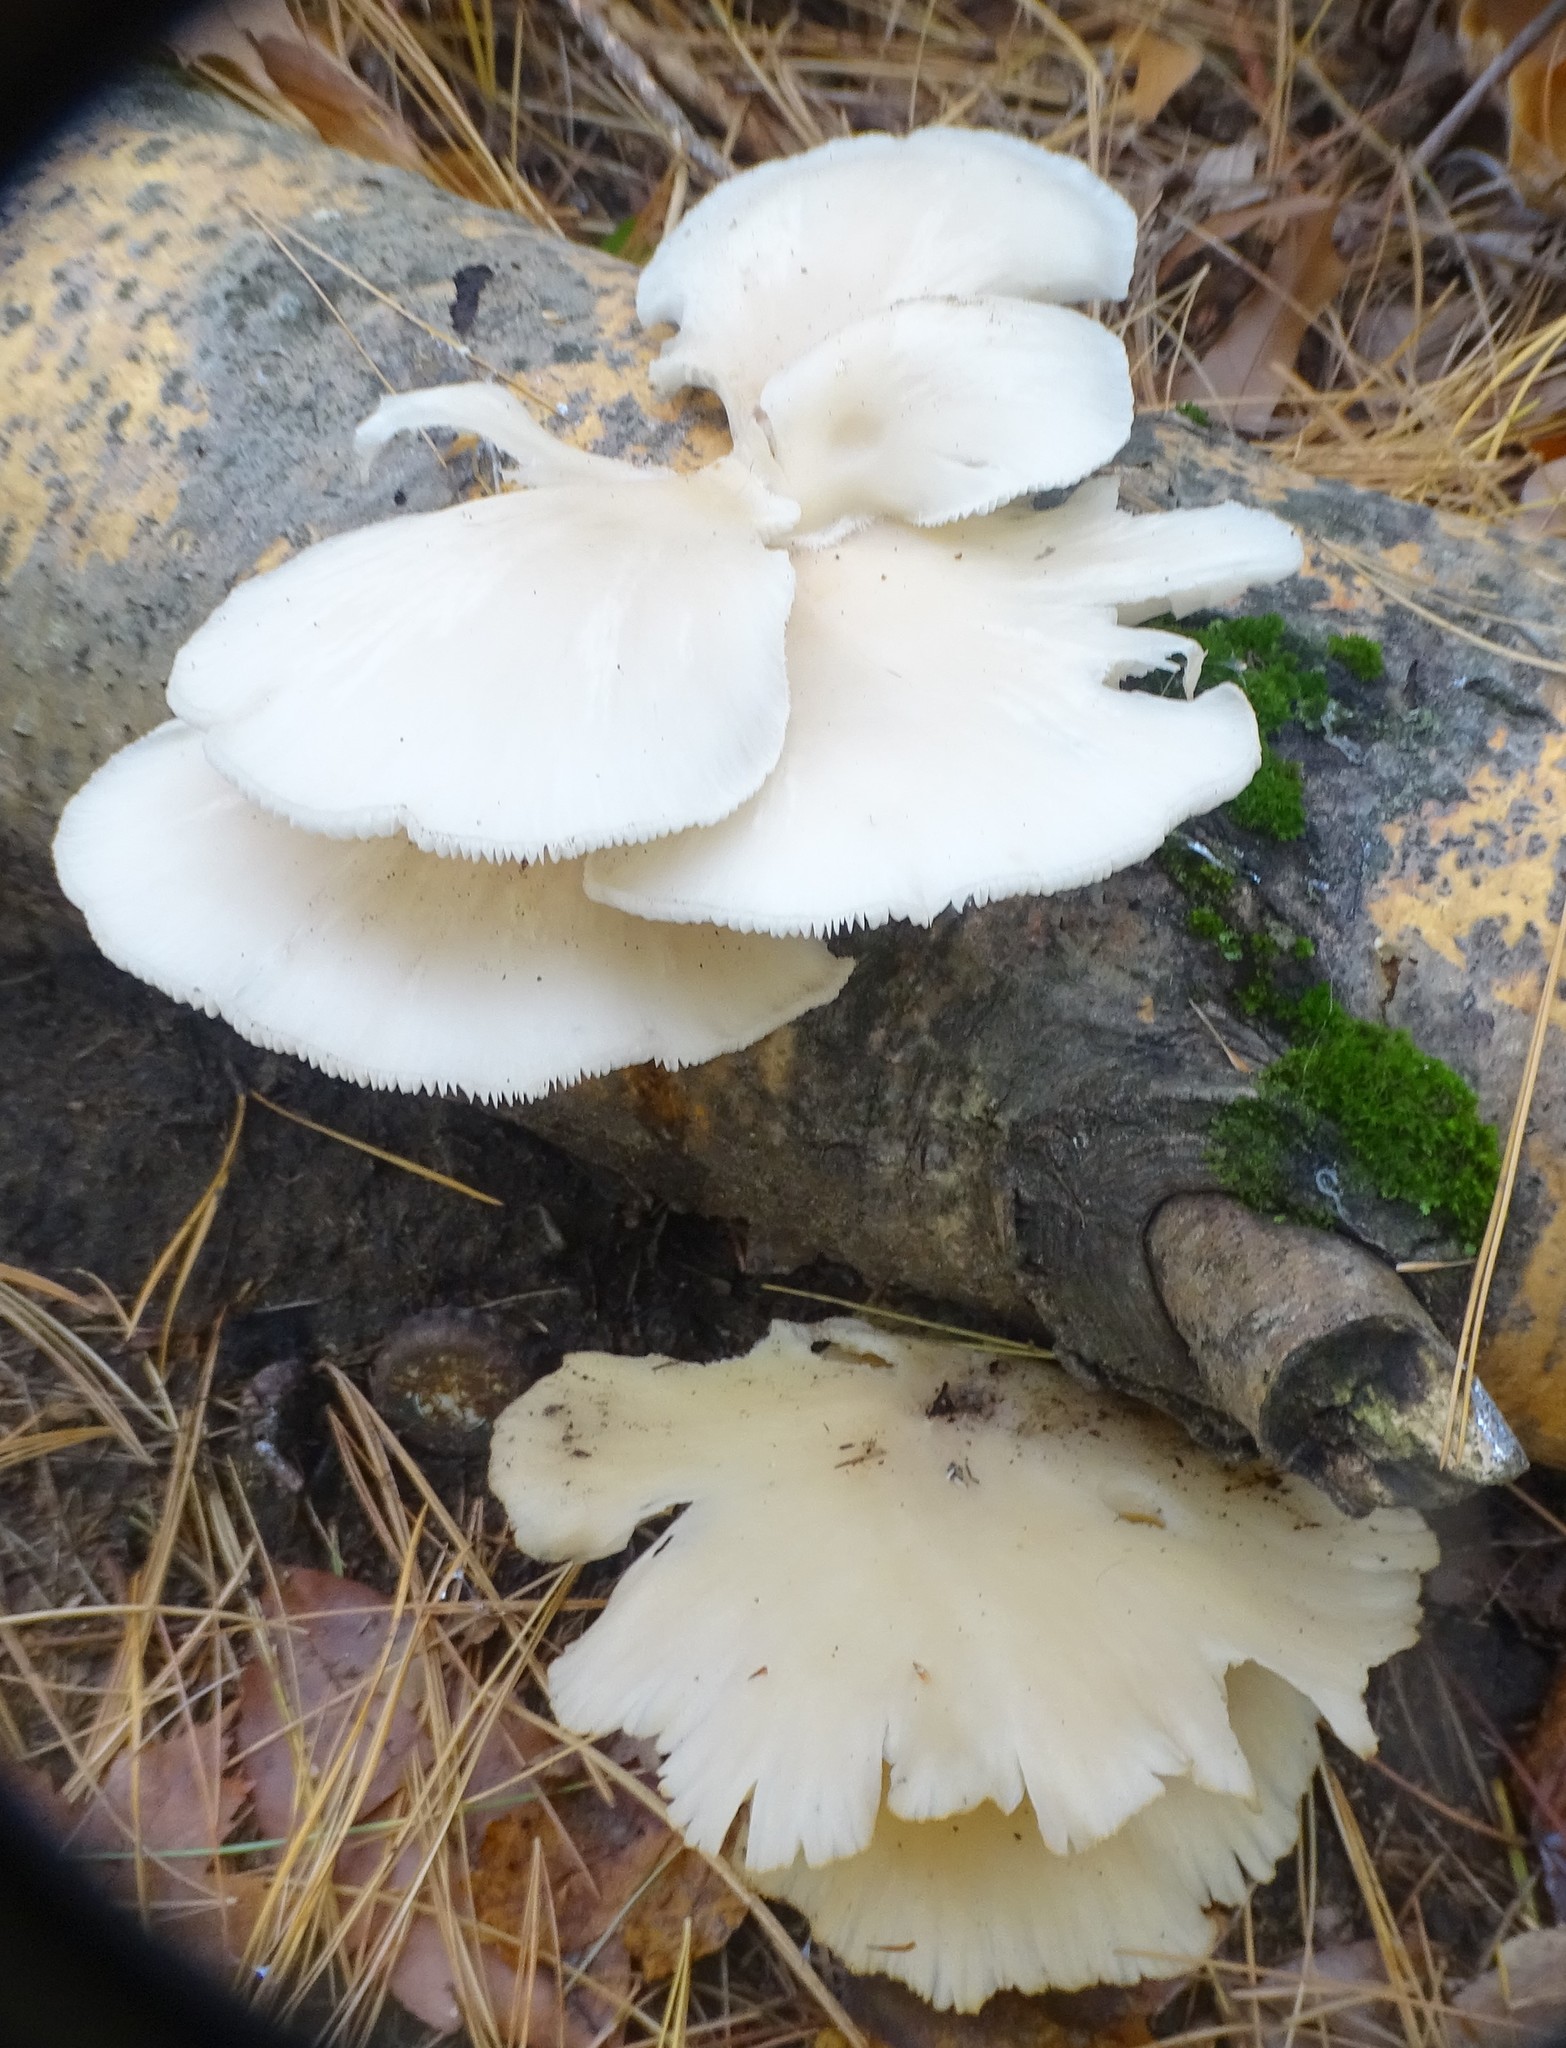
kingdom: Fungi
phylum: Basidiomycota
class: Agaricomycetes
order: Agaricales
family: Pleurotaceae
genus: Pleurotus
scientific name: Pleurotus pulmonarius
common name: Pale oyster
